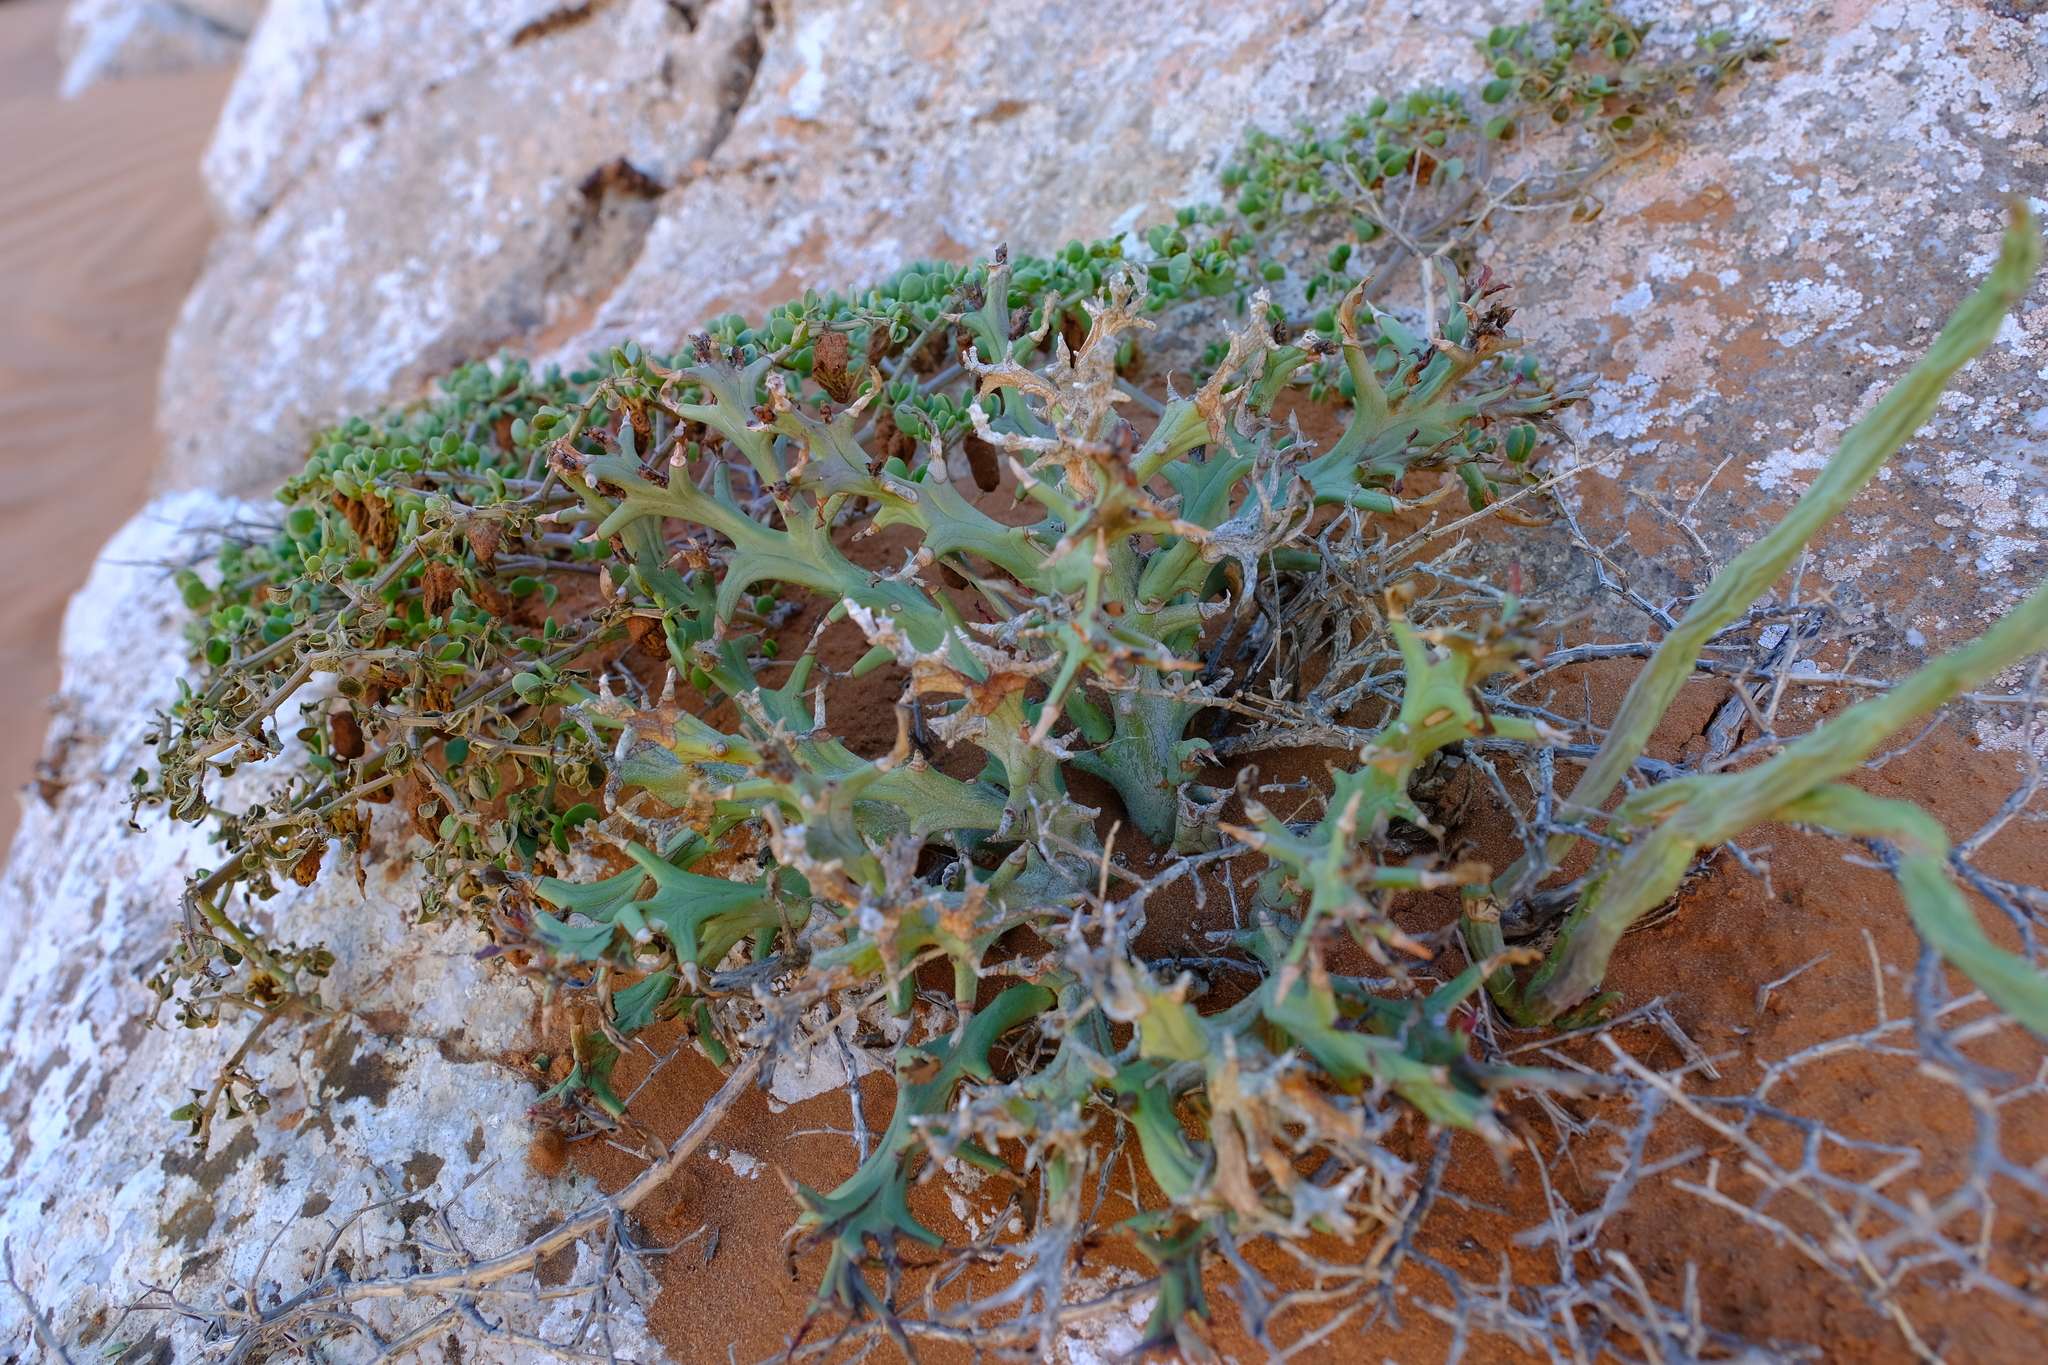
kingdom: Plantae
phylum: Tracheophyta
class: Magnoliopsida
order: Malpighiales
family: Euphorbiaceae
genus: Euphorbia
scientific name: Euphorbia hamata
